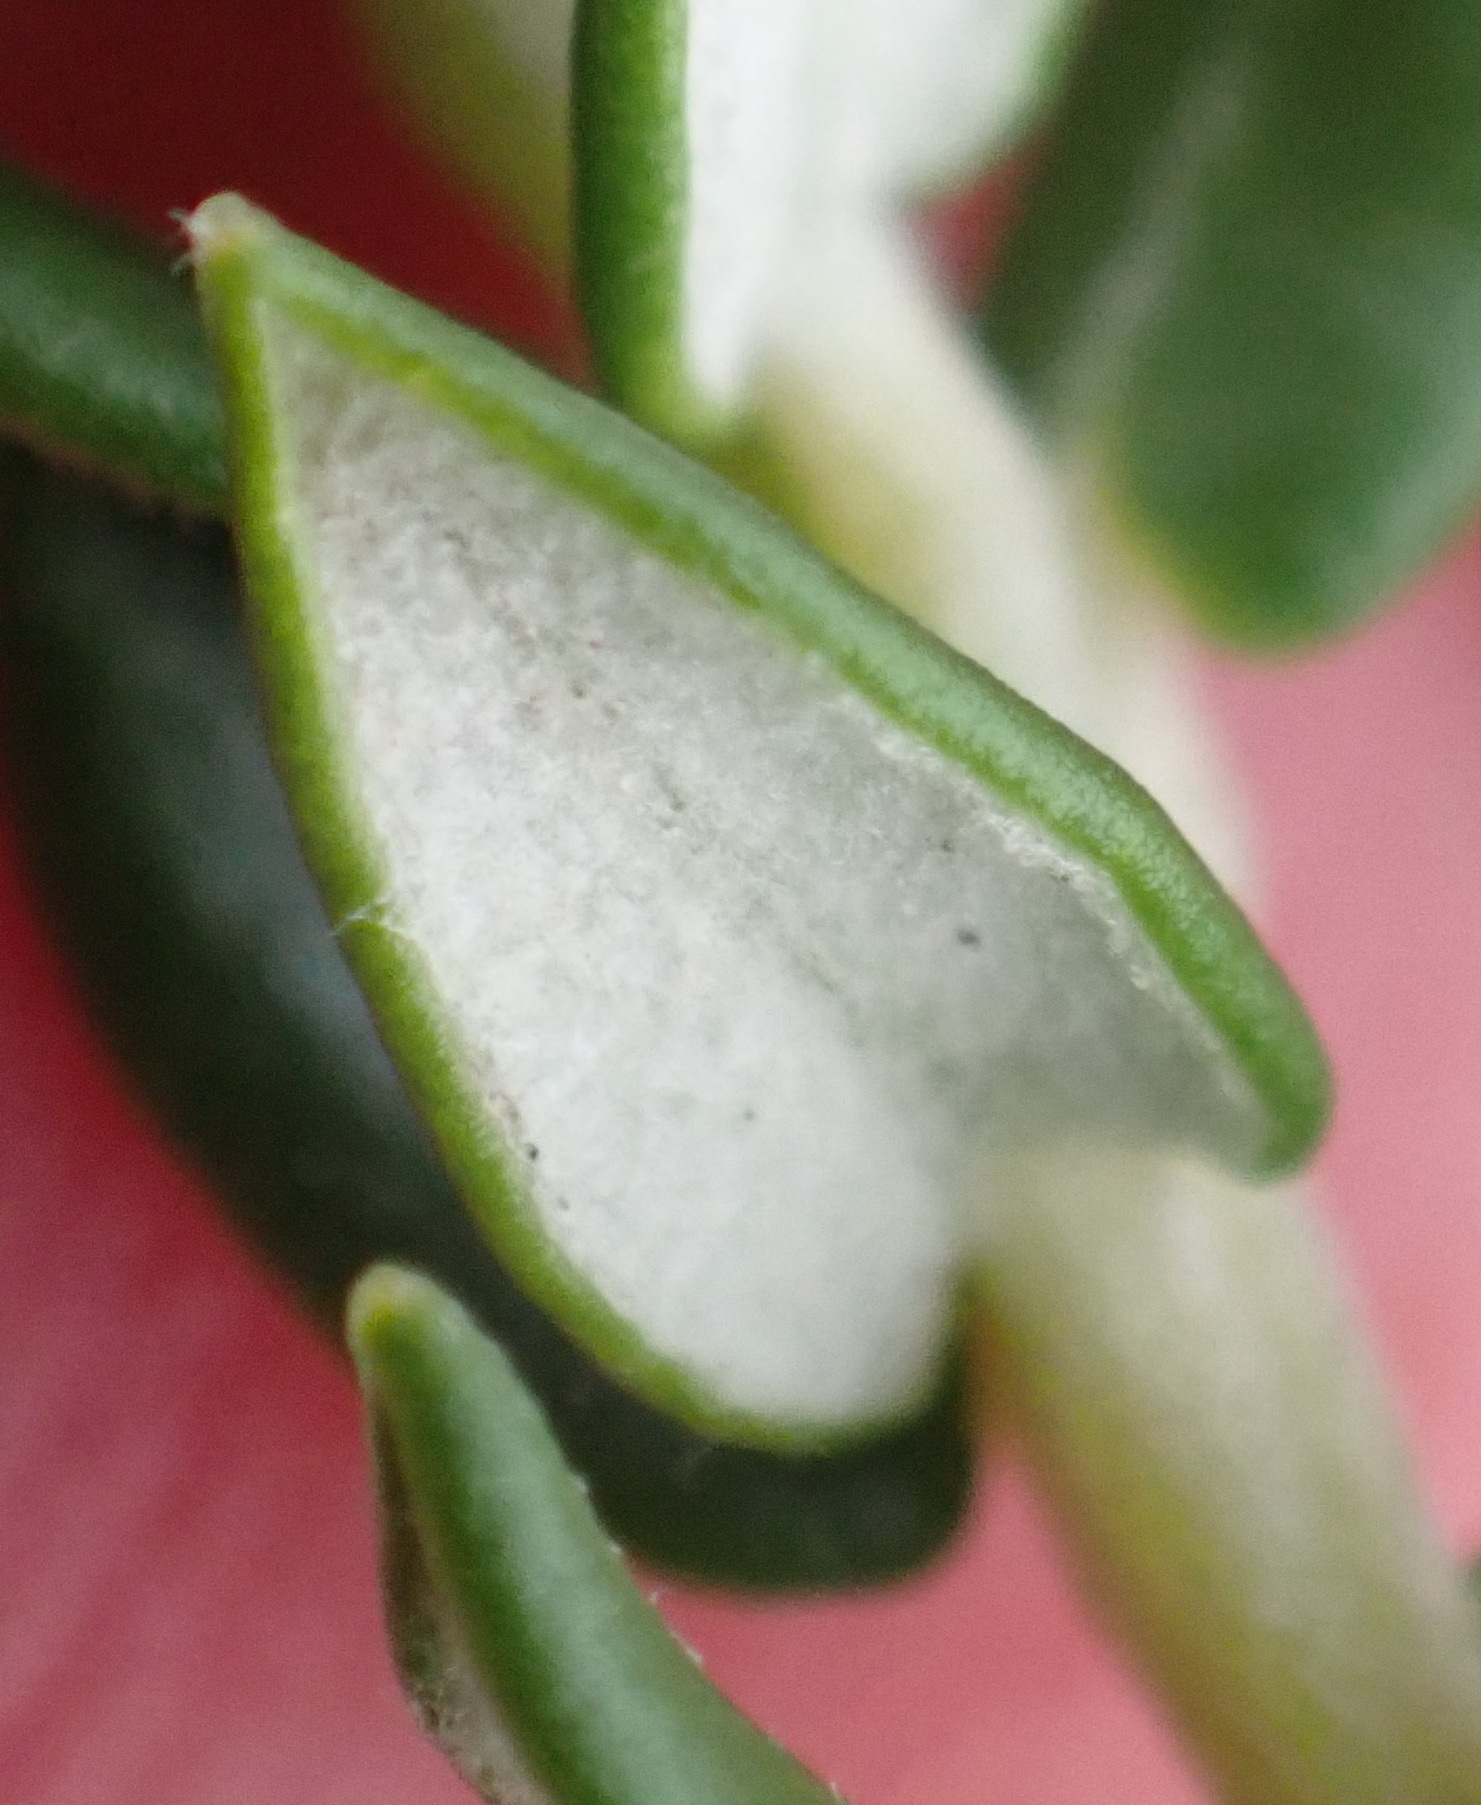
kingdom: Plantae
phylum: Tracheophyta
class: Magnoliopsida
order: Rosales
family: Rhamnaceae
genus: Phylica
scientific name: Phylica litoralis
